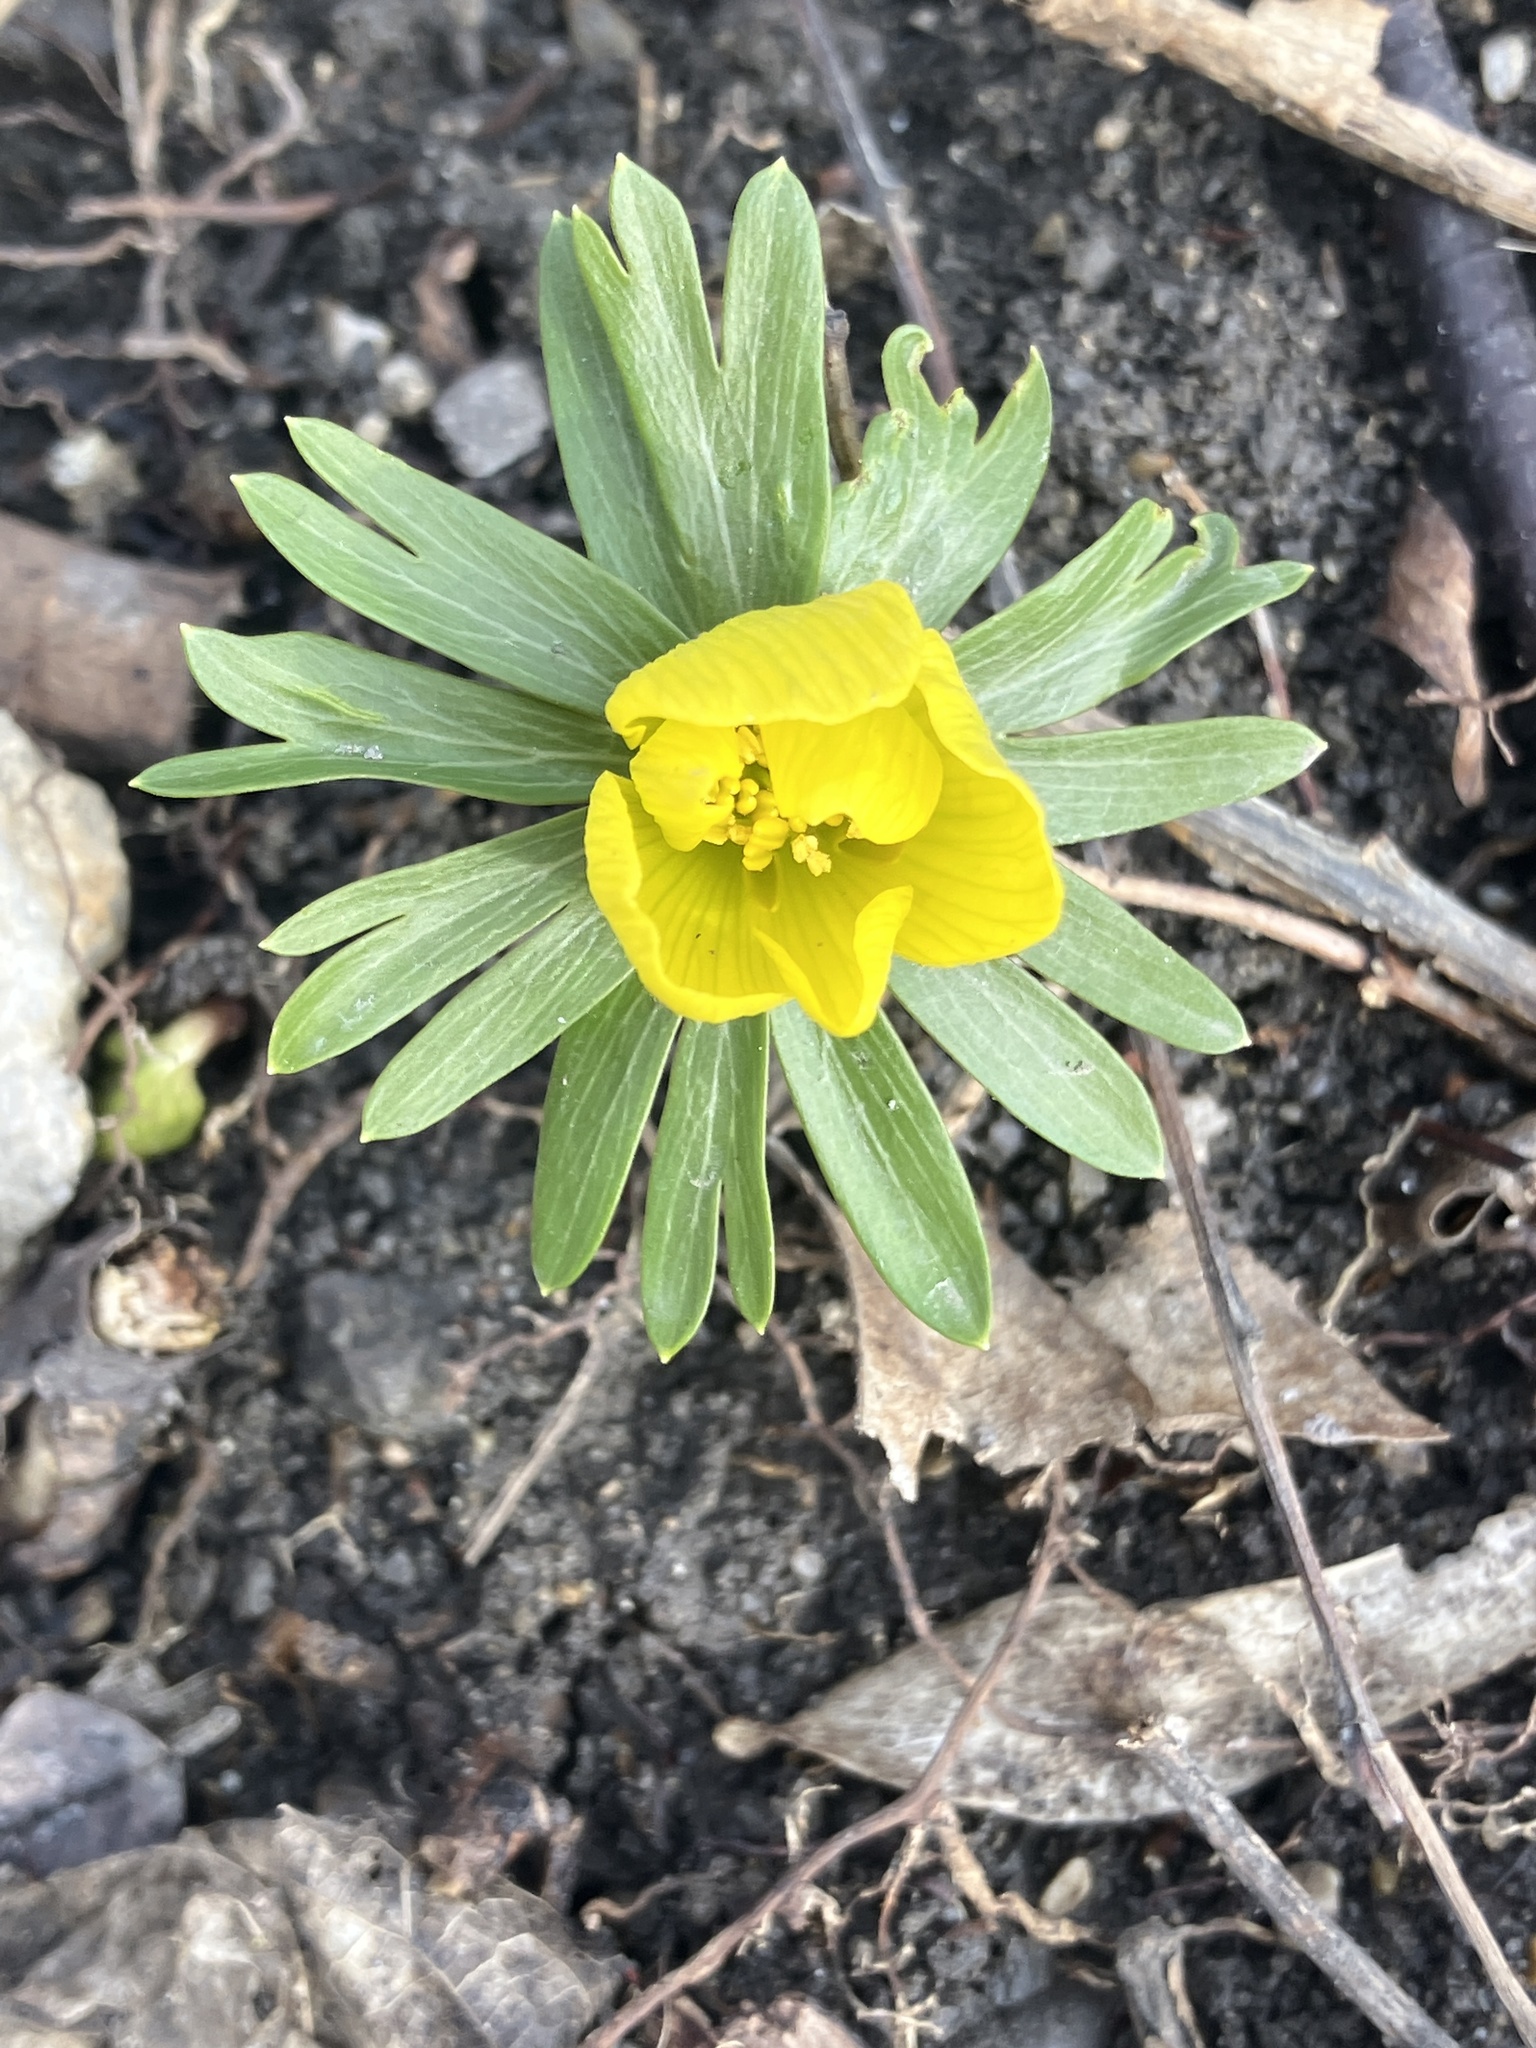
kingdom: Plantae
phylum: Tracheophyta
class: Magnoliopsida
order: Ranunculales
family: Ranunculaceae
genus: Eranthis
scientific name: Eranthis hyemalis
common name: Winter aconite
